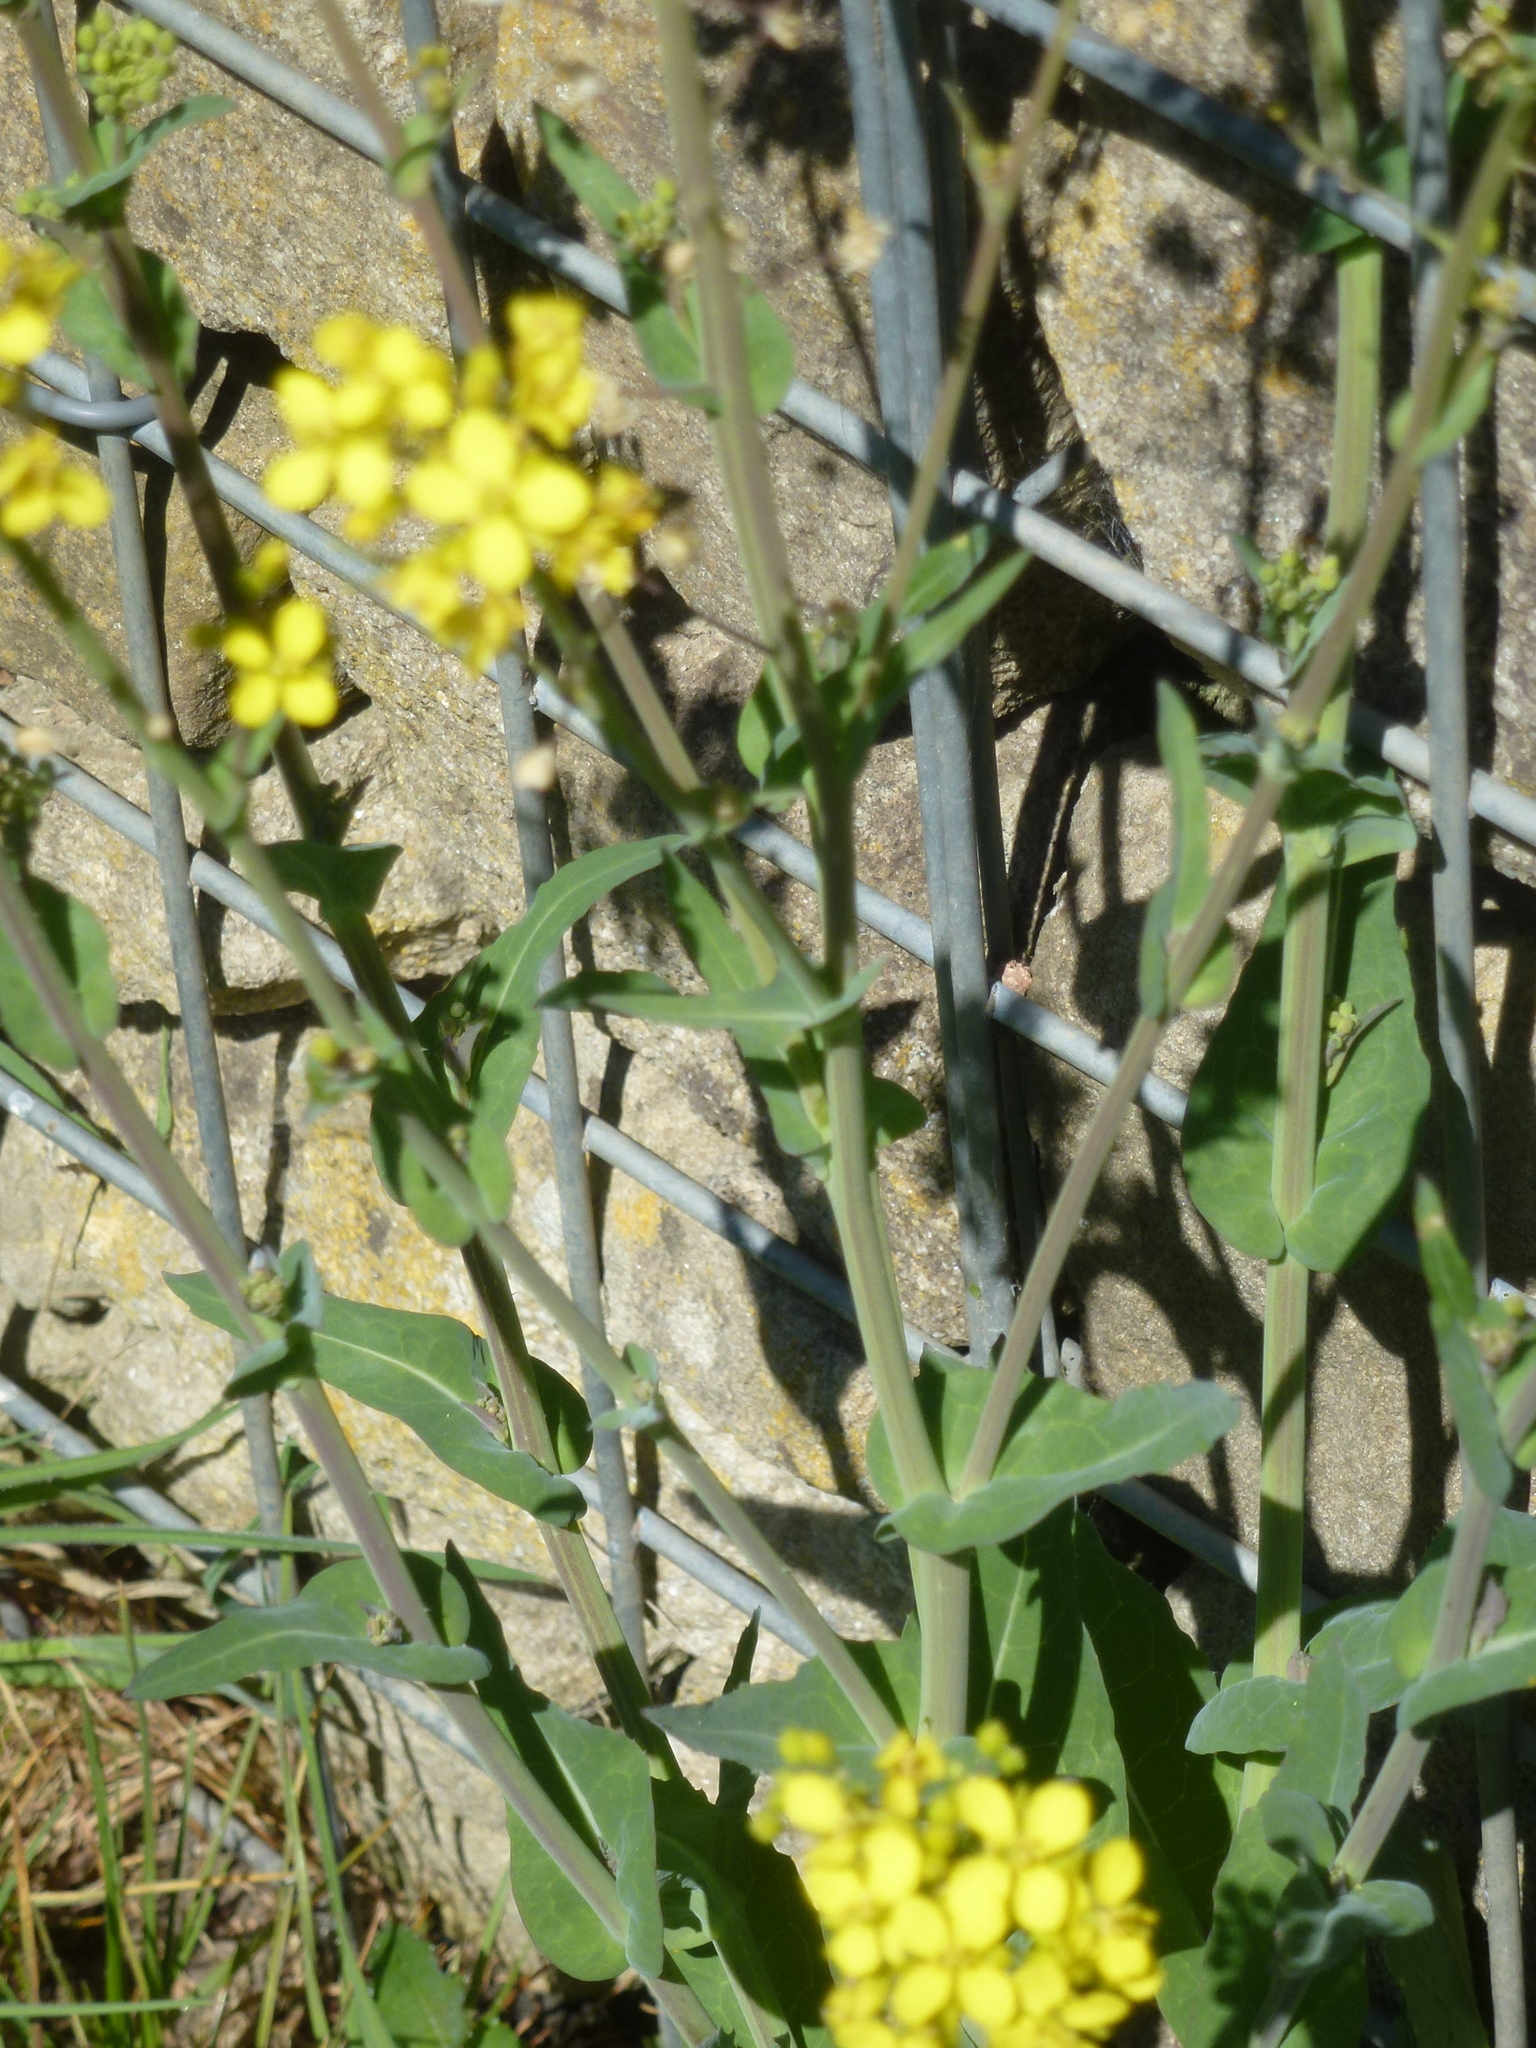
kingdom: Plantae
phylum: Tracheophyta
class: Magnoliopsida
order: Brassicales
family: Brassicaceae
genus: Brassica
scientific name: Brassica rapa
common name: Field mustard
